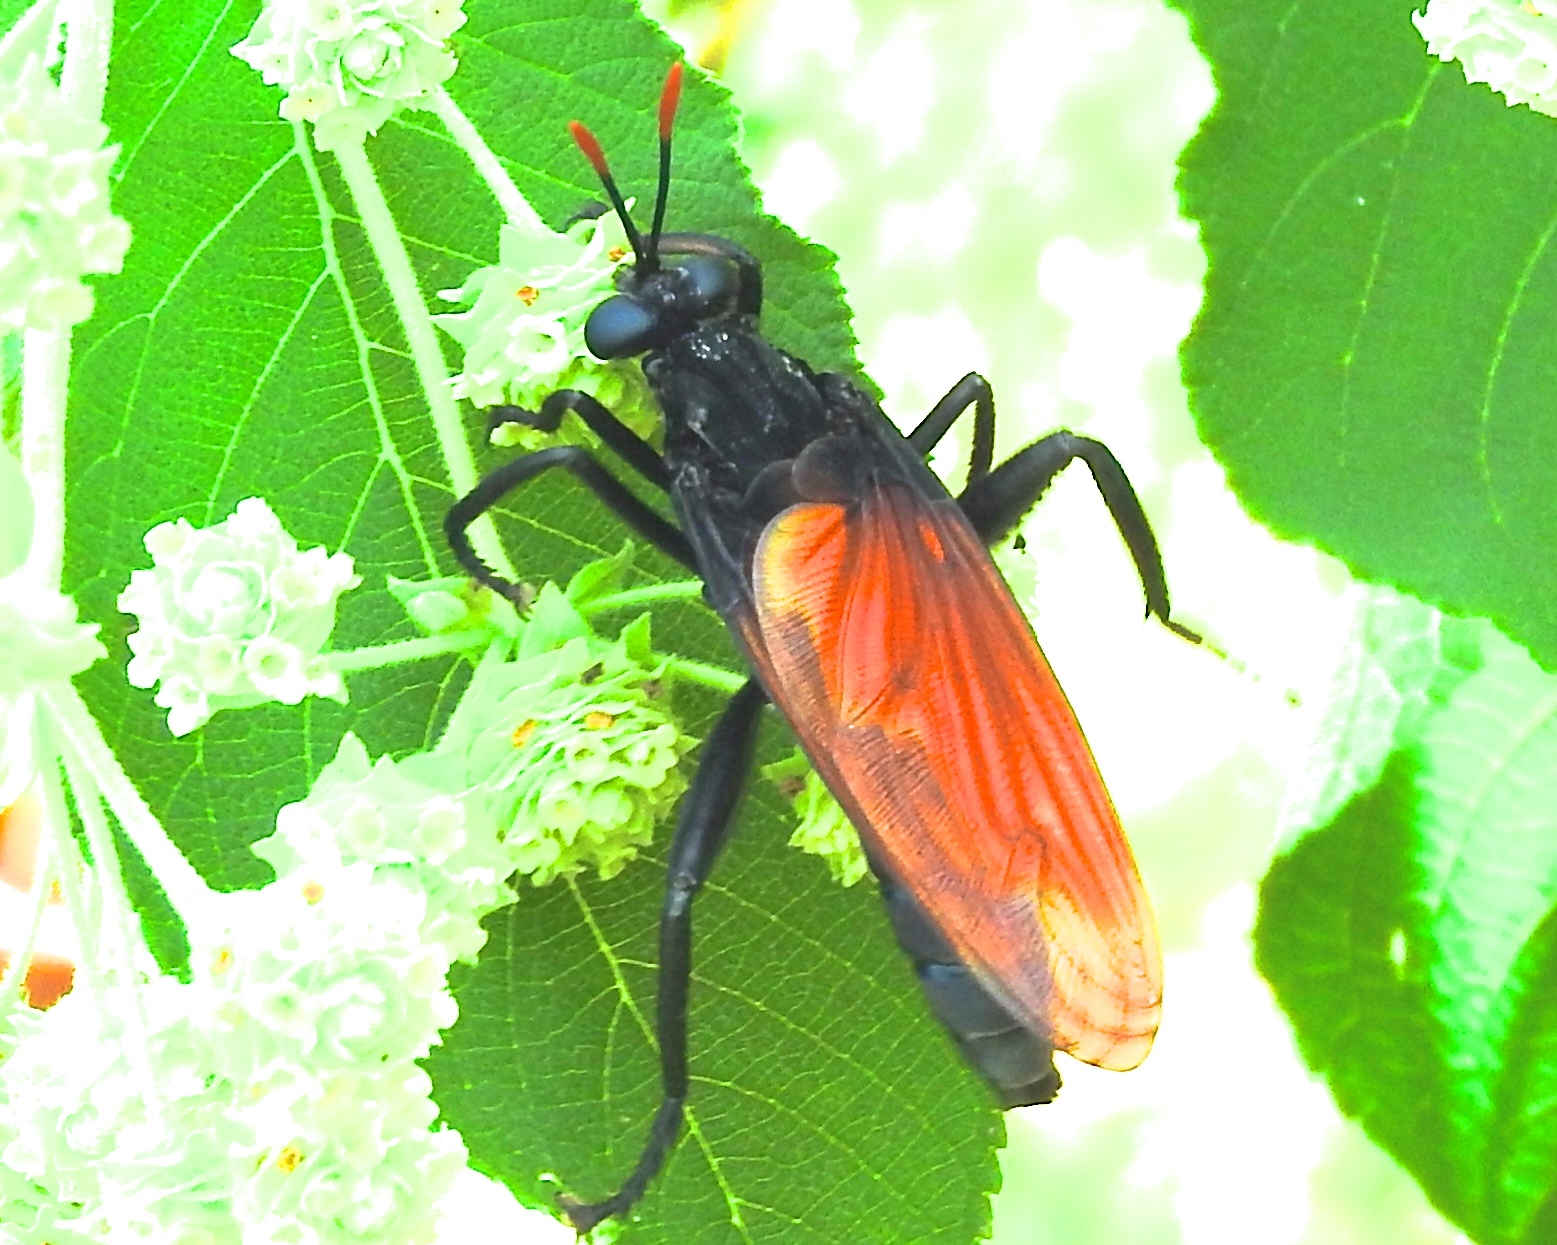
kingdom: Animalia
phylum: Arthropoda
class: Insecta
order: Diptera
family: Mydidae
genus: Mydas
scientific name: Mydas rubidapex
